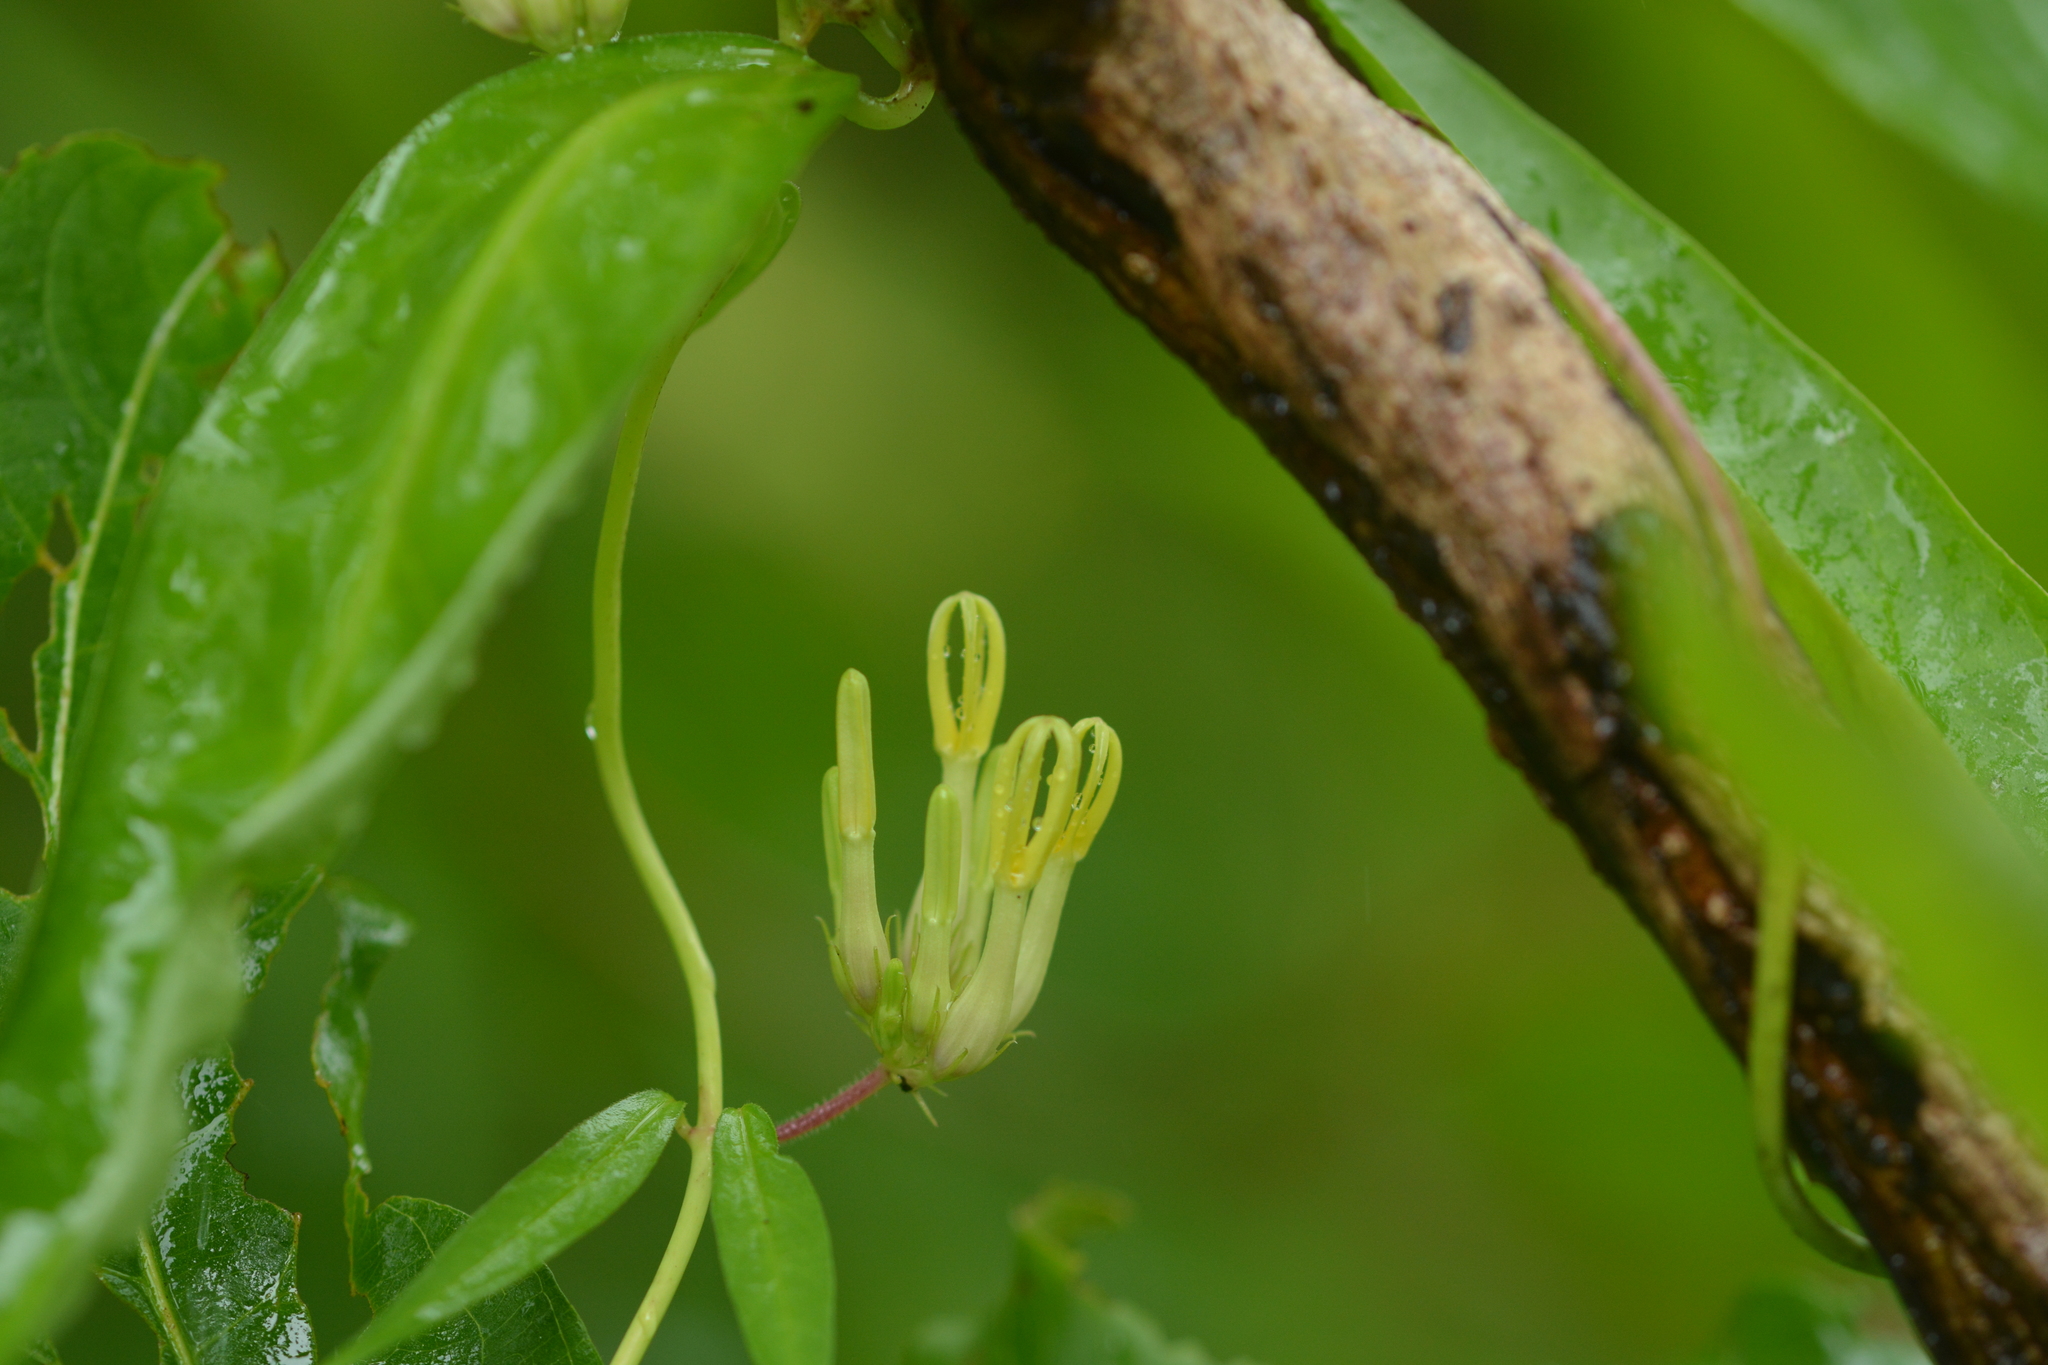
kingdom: Plantae
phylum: Tracheophyta
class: Magnoliopsida
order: Gentianales
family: Apocynaceae
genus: Ceropegia
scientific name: Ceropegia odorata
